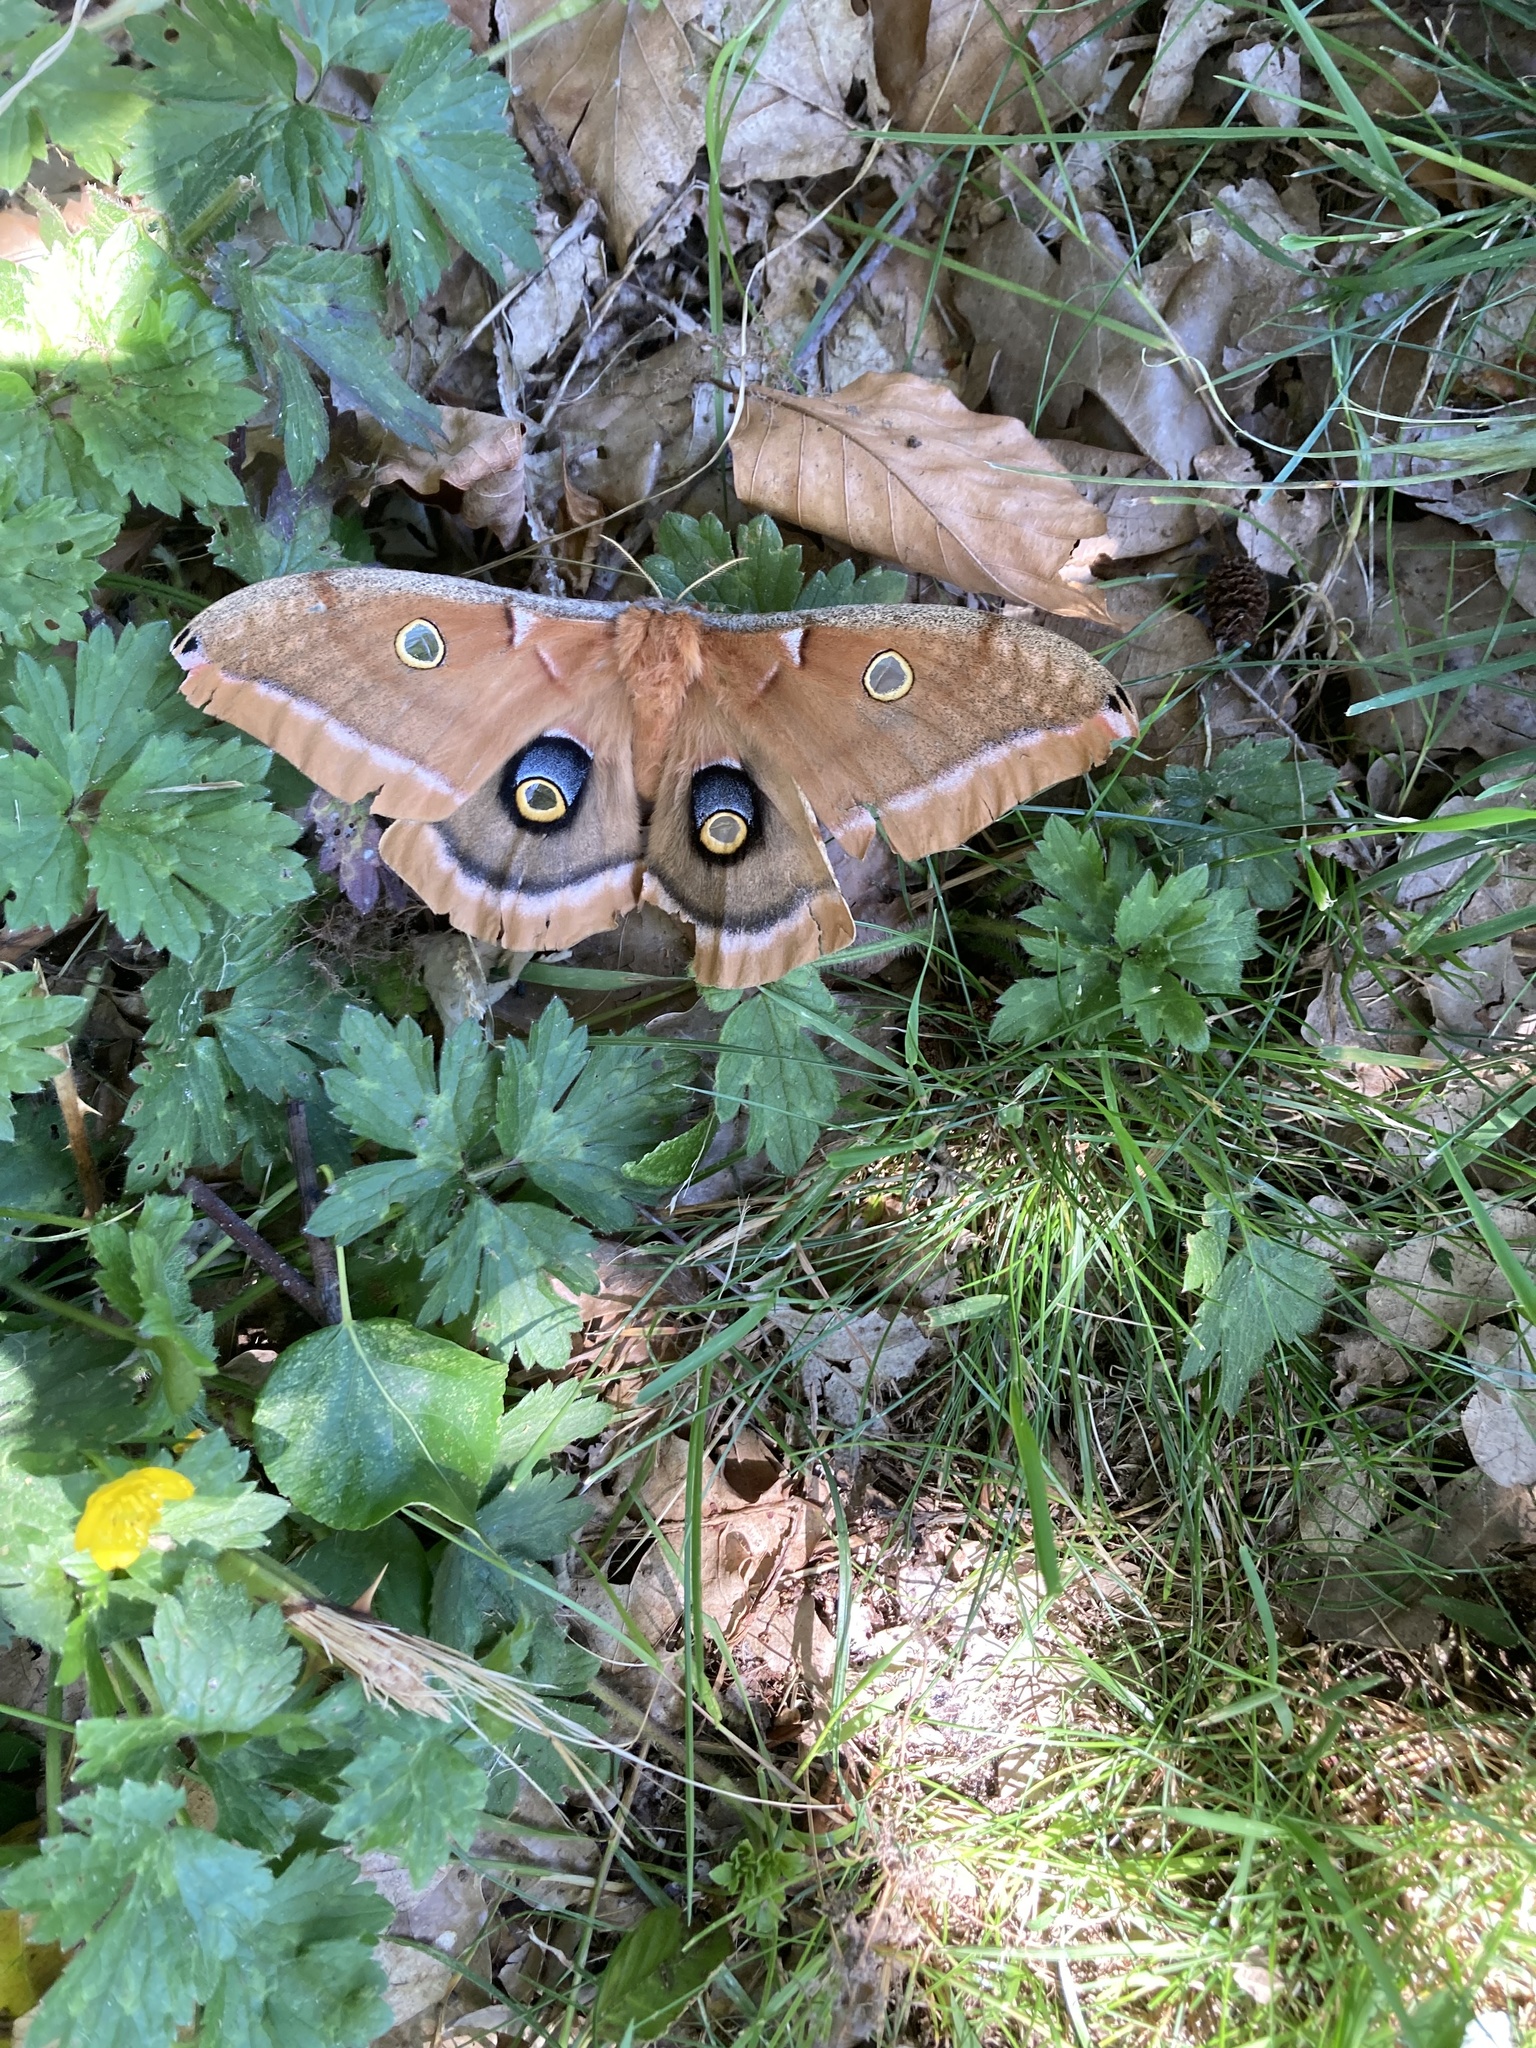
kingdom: Animalia
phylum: Arthropoda
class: Insecta
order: Lepidoptera
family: Saturniidae
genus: Antheraea
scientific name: Antheraea polyphemus
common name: Polyphemus moth
